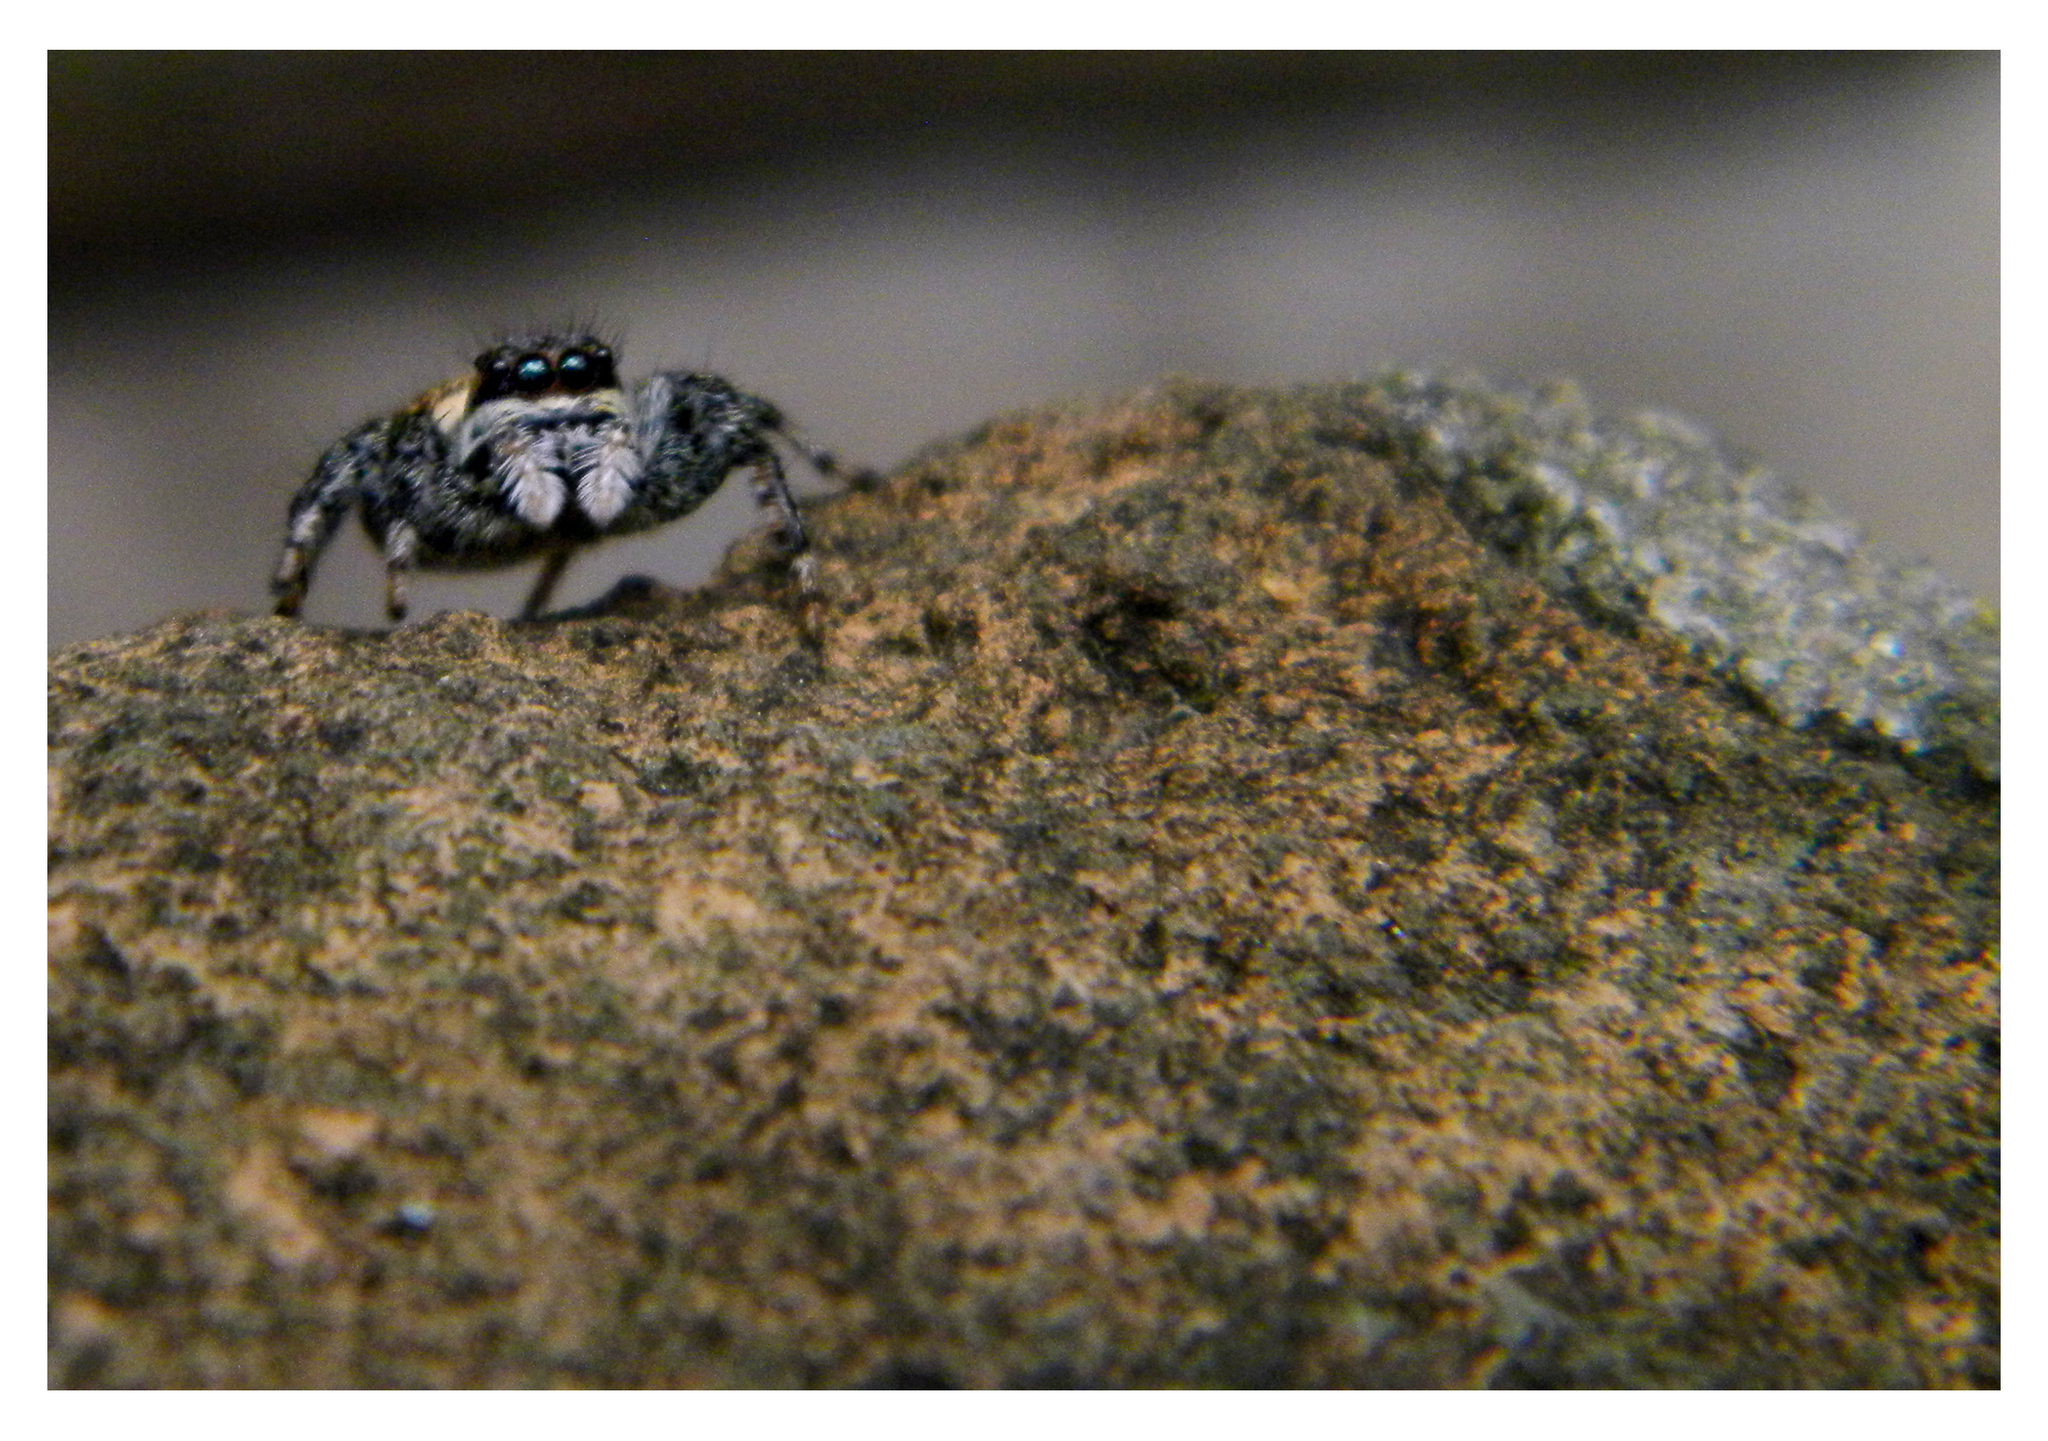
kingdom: Animalia
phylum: Arthropoda
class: Arachnida
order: Araneae
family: Salticidae
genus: Phiale
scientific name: Phiale roburifoliata
